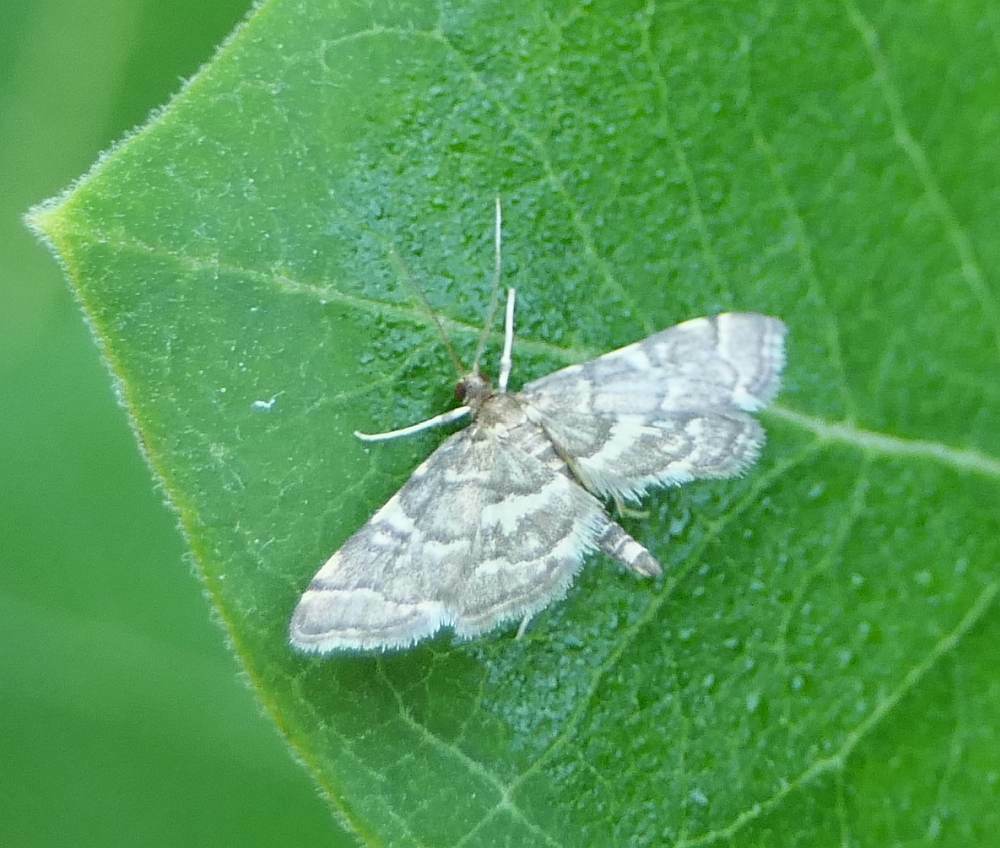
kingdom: Animalia
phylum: Arthropoda
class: Insecta
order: Lepidoptera
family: Crambidae
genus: Anageshna
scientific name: Anageshna primordialis
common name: Yellow-spotted webworm moth
